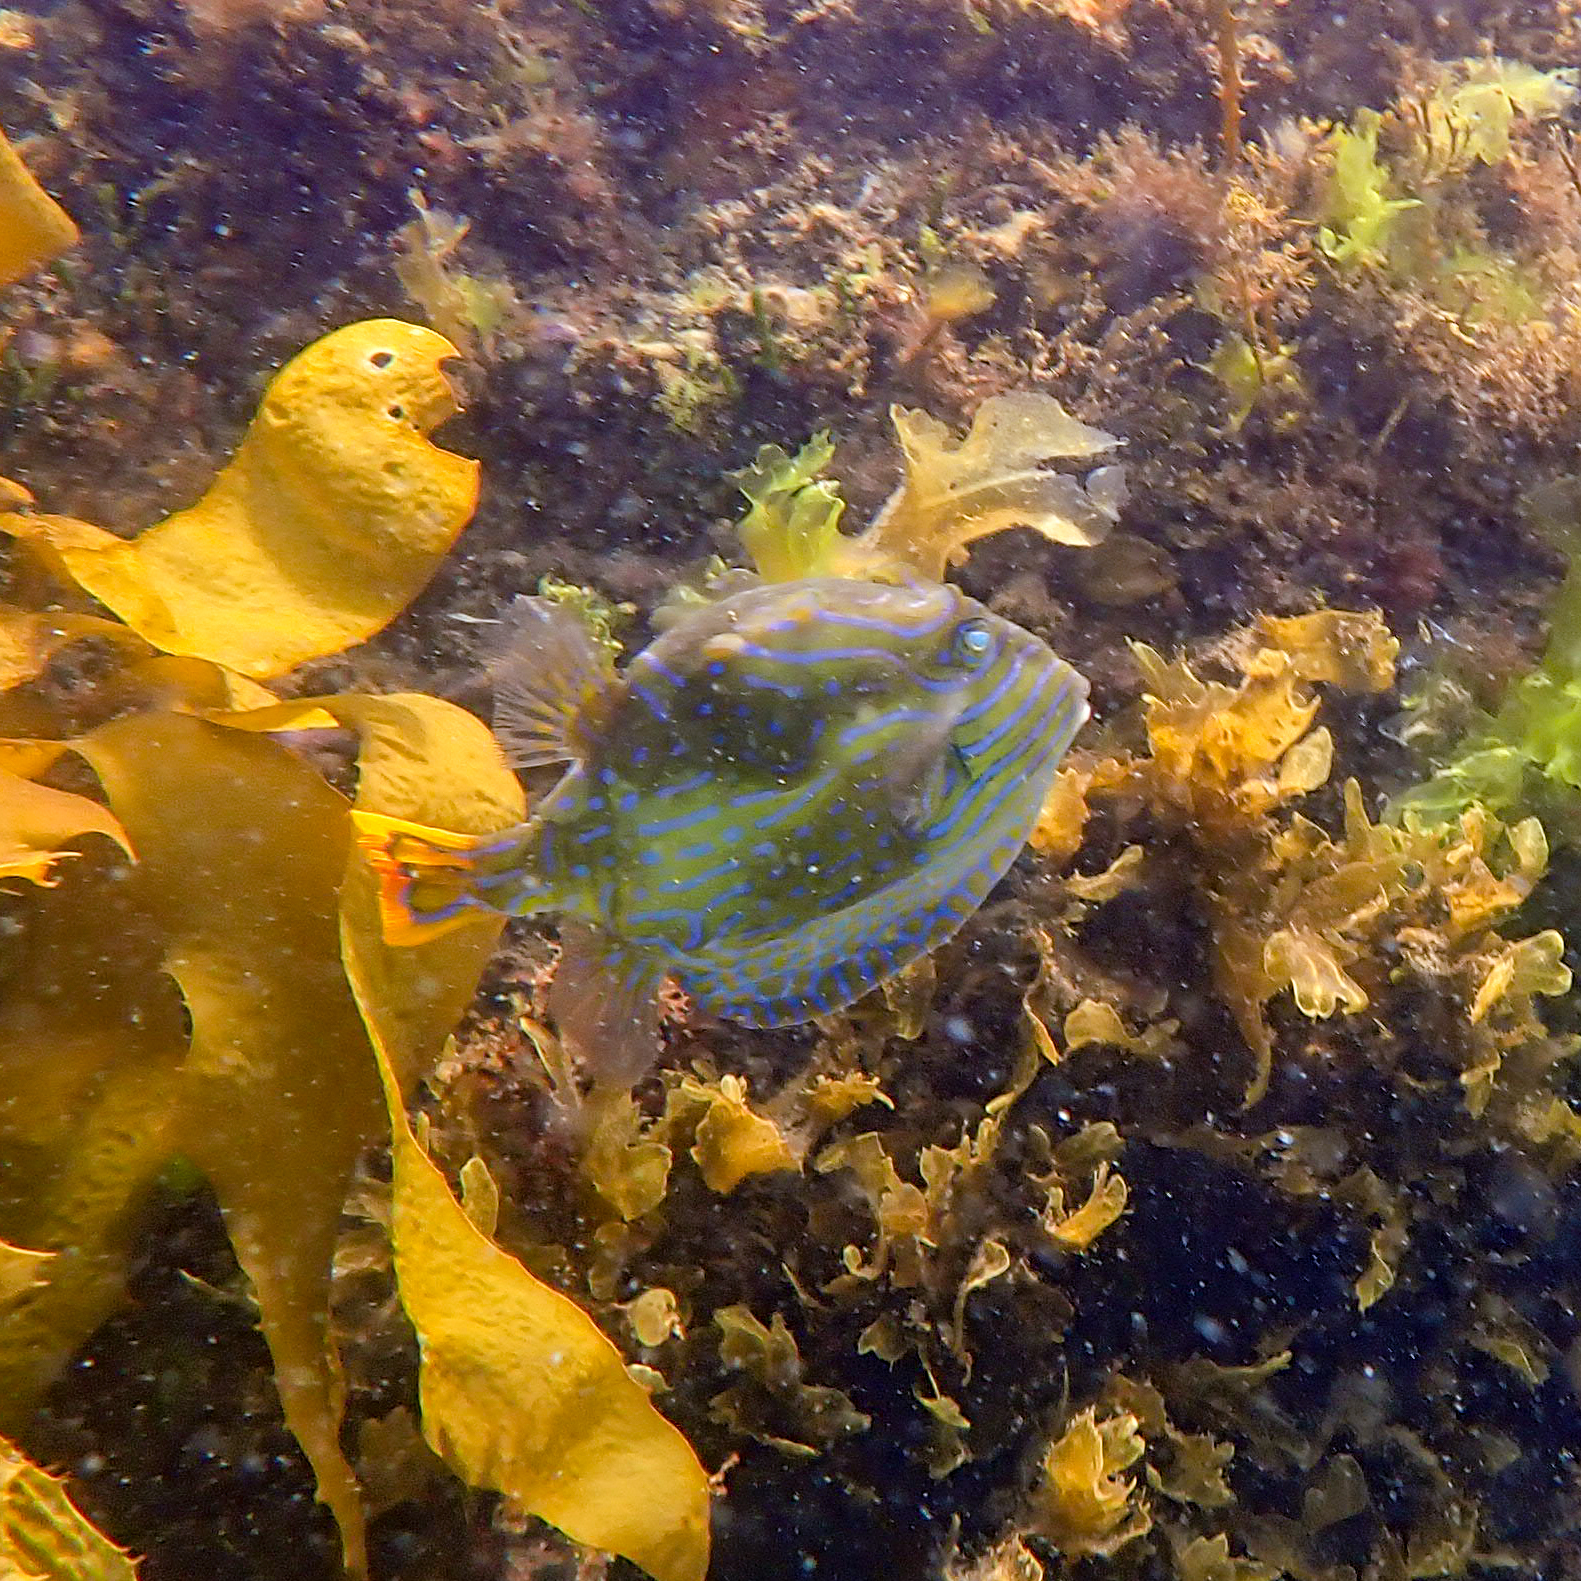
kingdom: Animalia
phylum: Chordata
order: Tetraodontiformes
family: Aracanidae
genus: Aracana
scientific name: Aracana aurita
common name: Shaw’s cowfish
